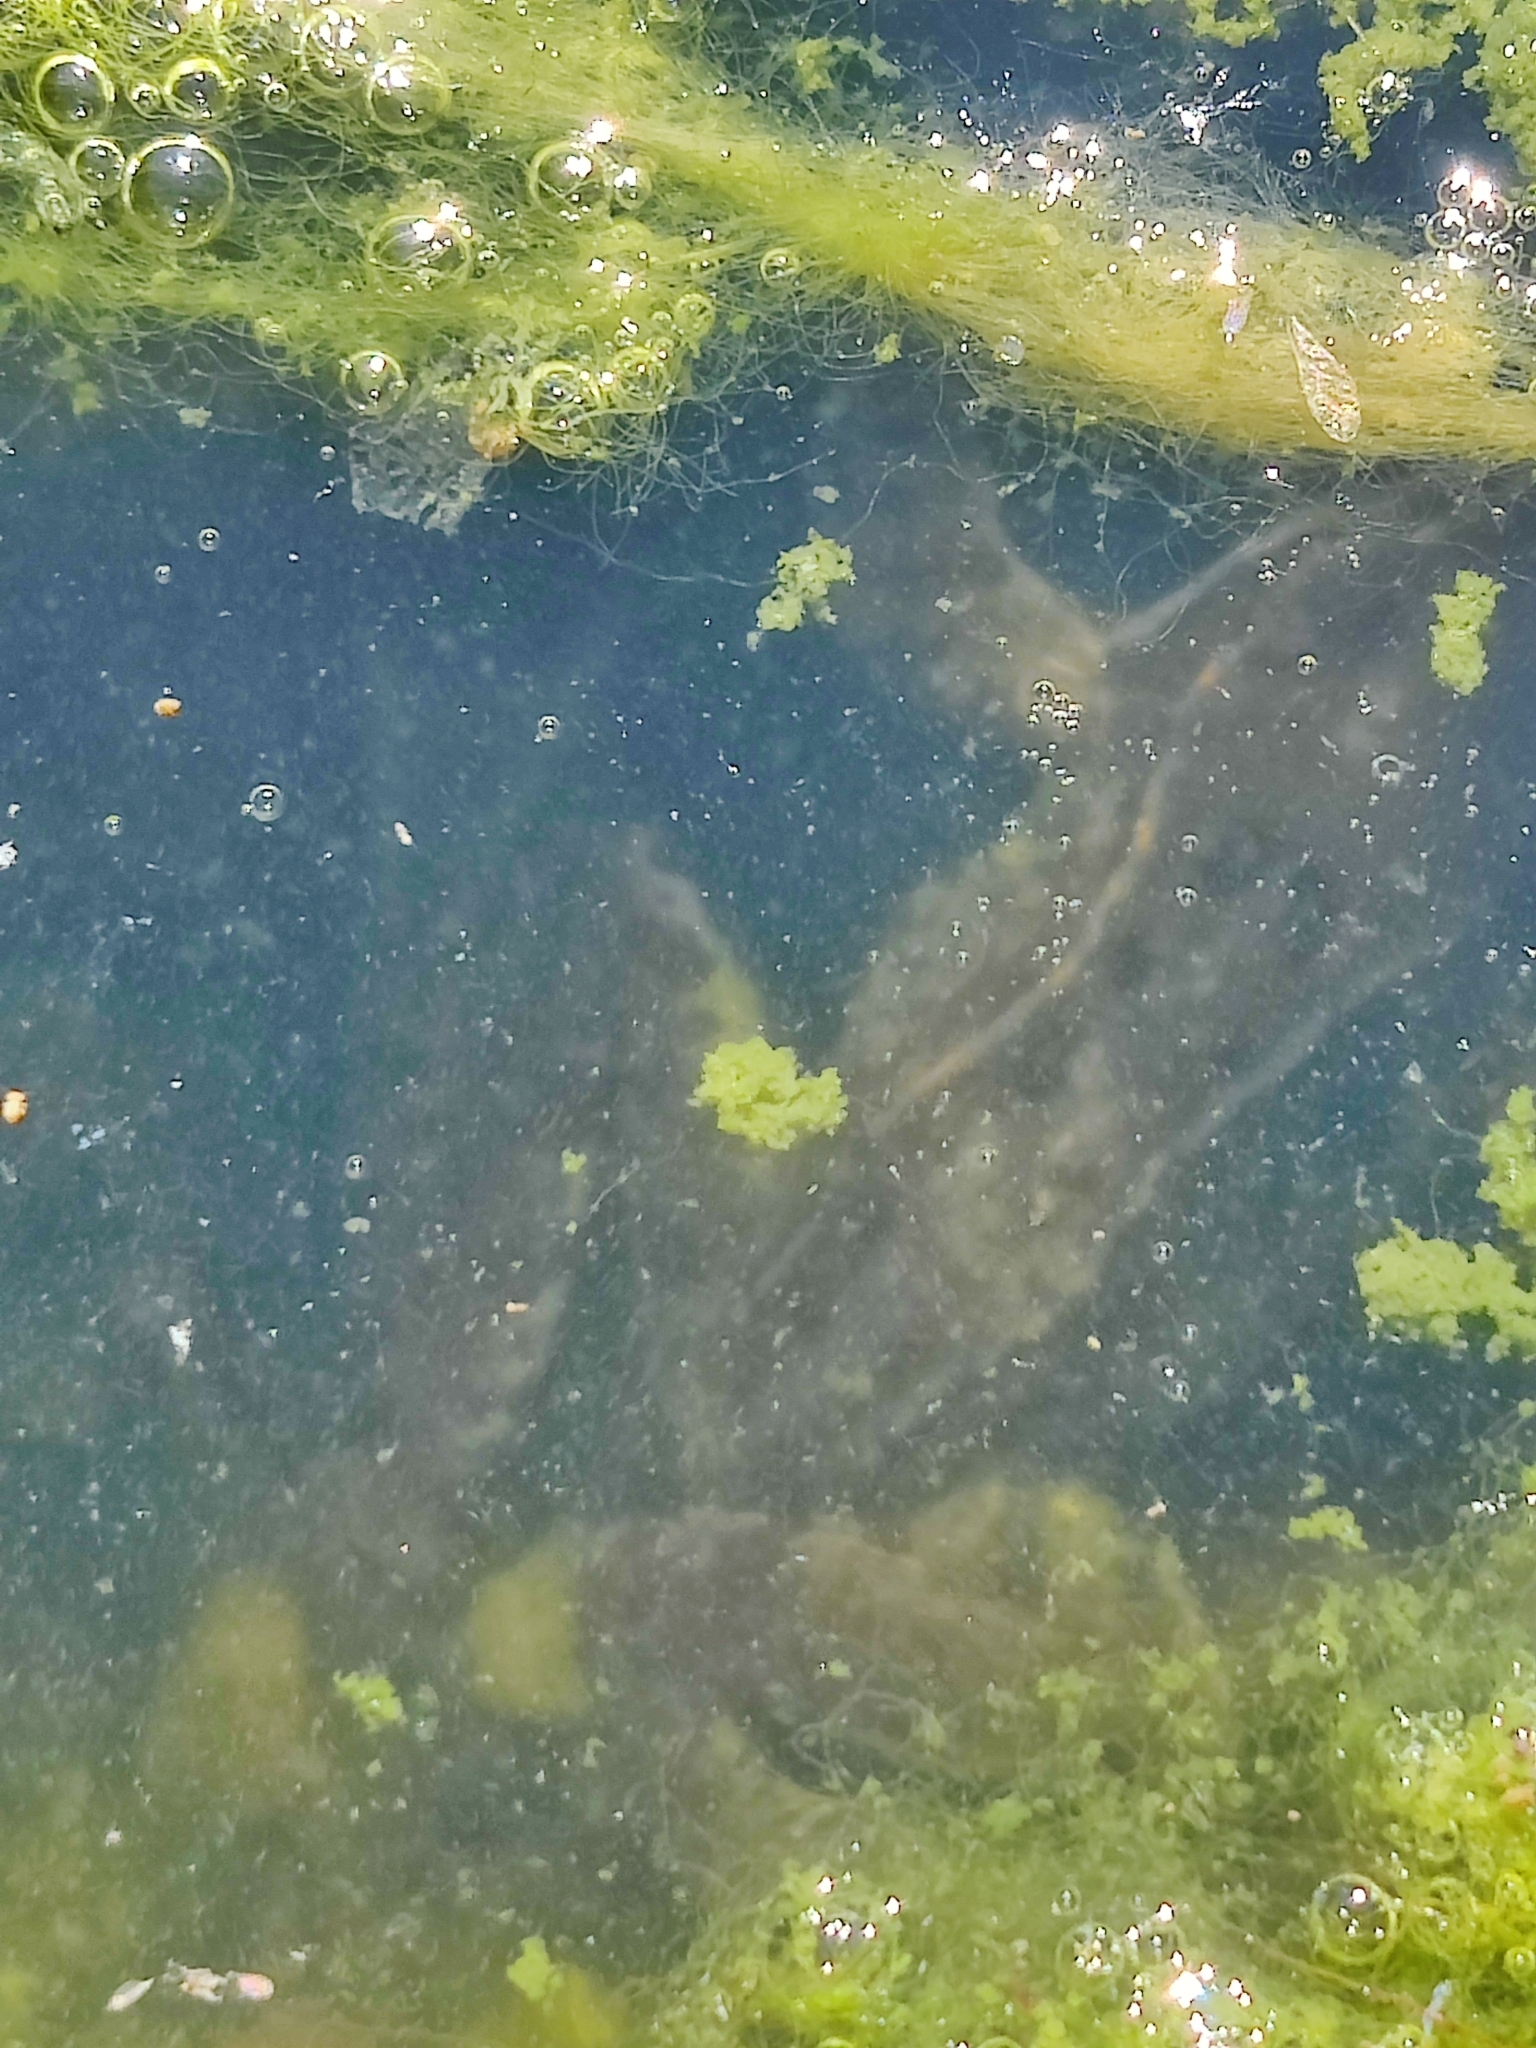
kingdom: Animalia
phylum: Chordata
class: Amphibia
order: Anura
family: Ranidae
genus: Rana
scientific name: Rana temporaria
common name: Common frog
